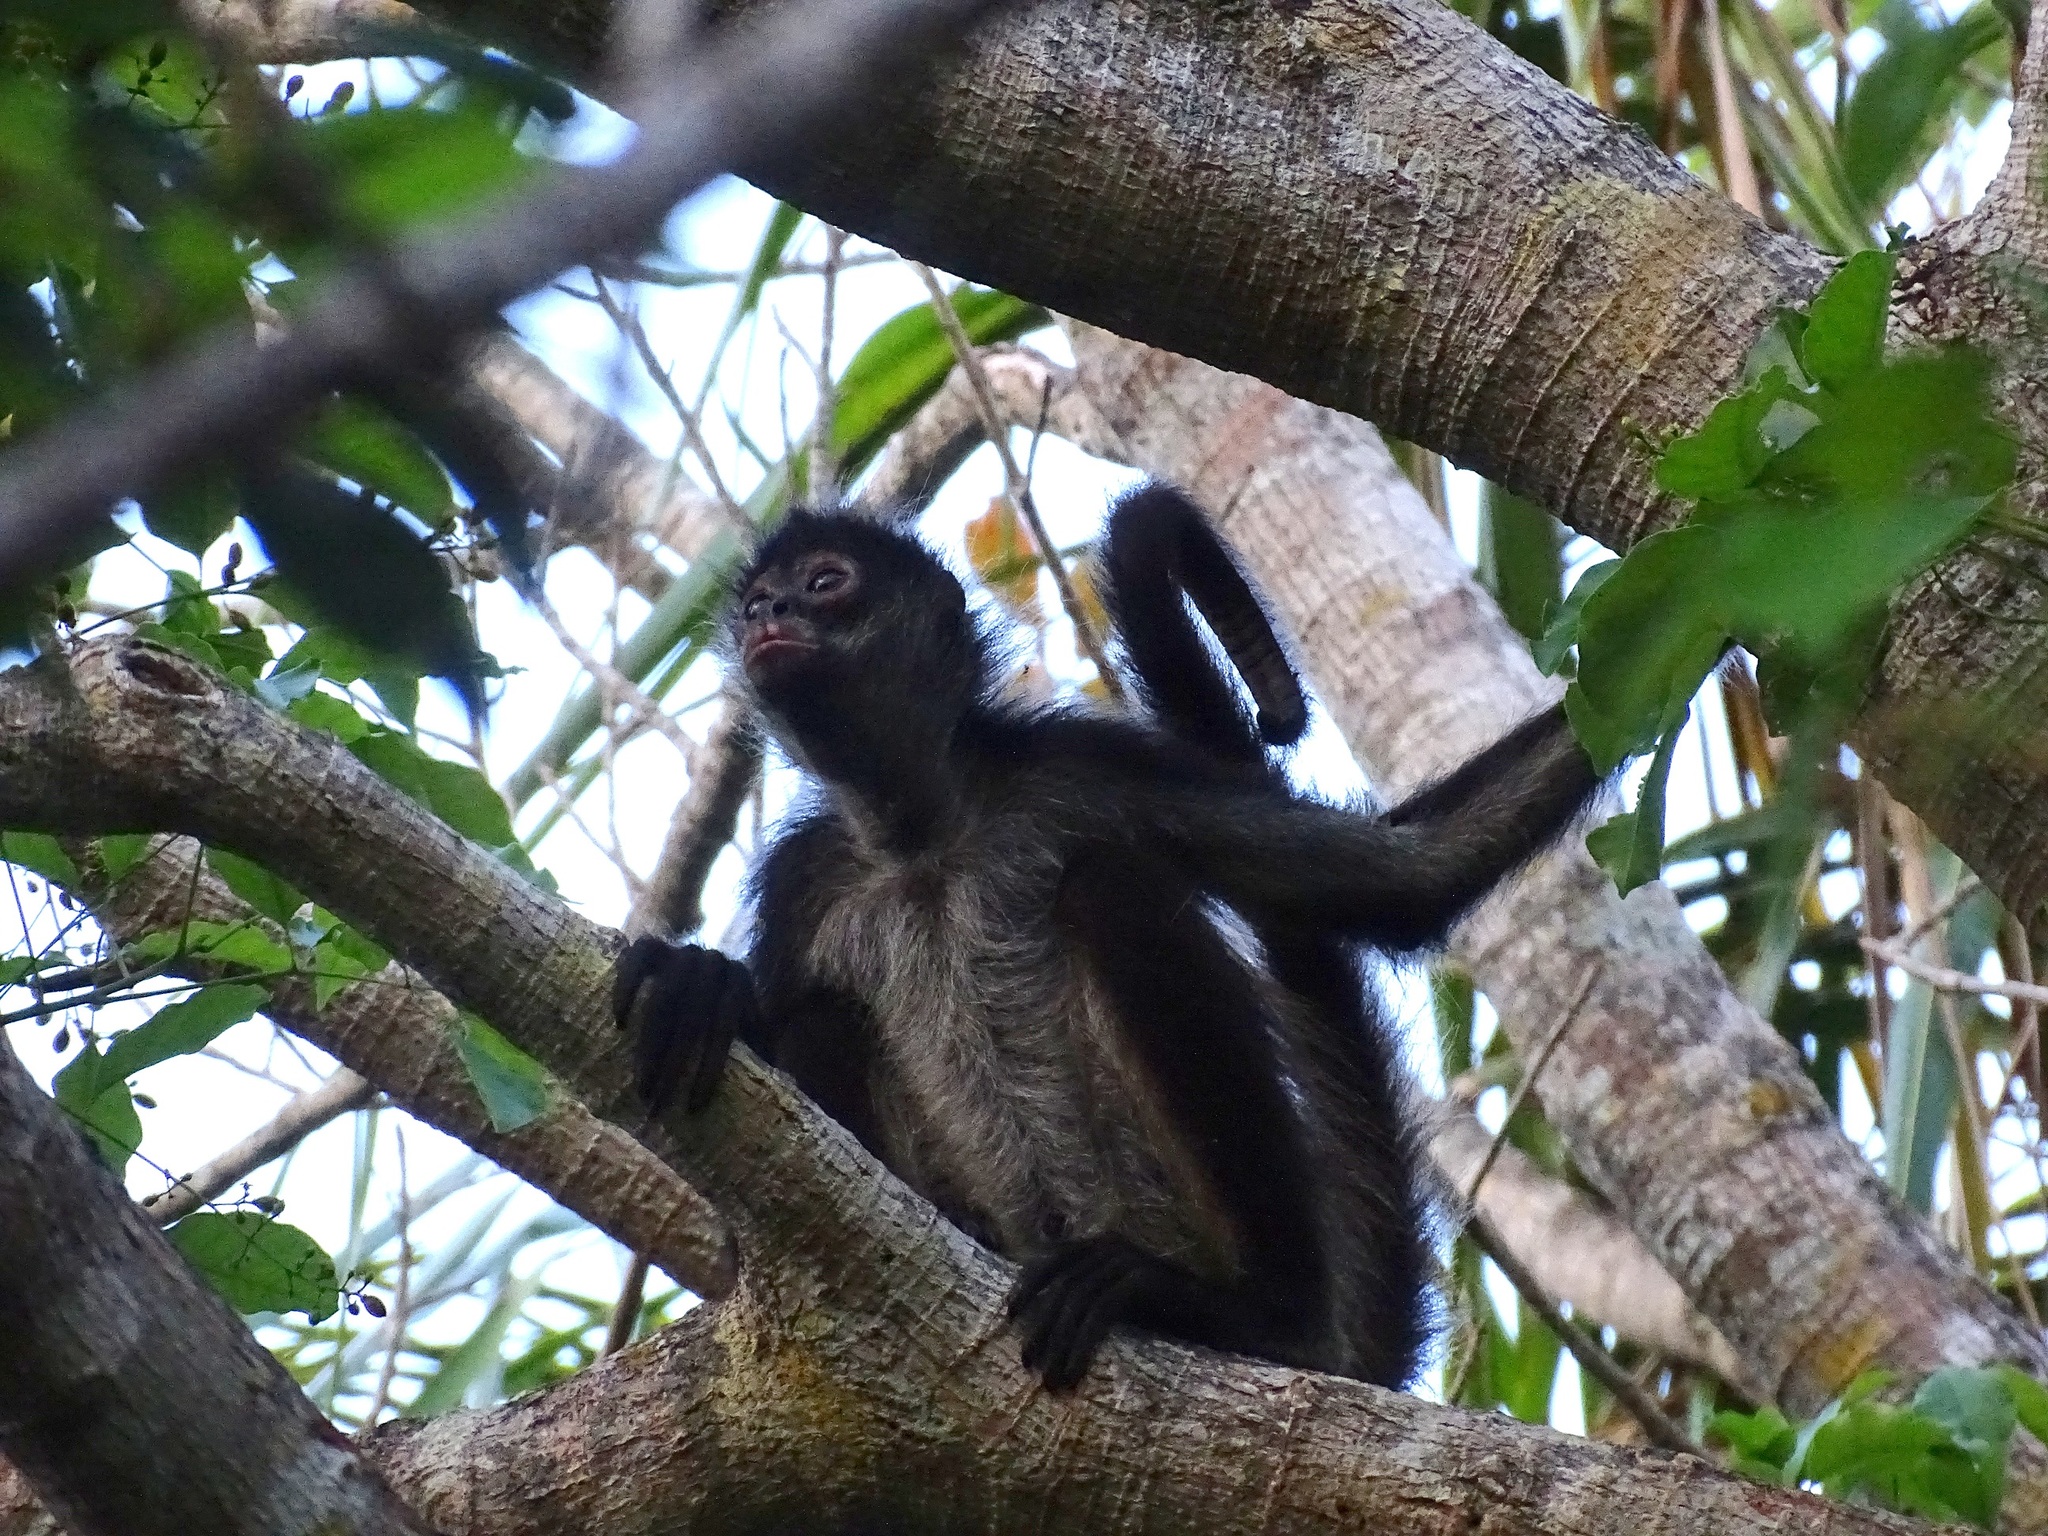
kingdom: Animalia
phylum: Chordata
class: Mammalia
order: Primates
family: Atelidae
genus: Ateles
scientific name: Ateles geoffroyi
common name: Black-handed spider monkey
